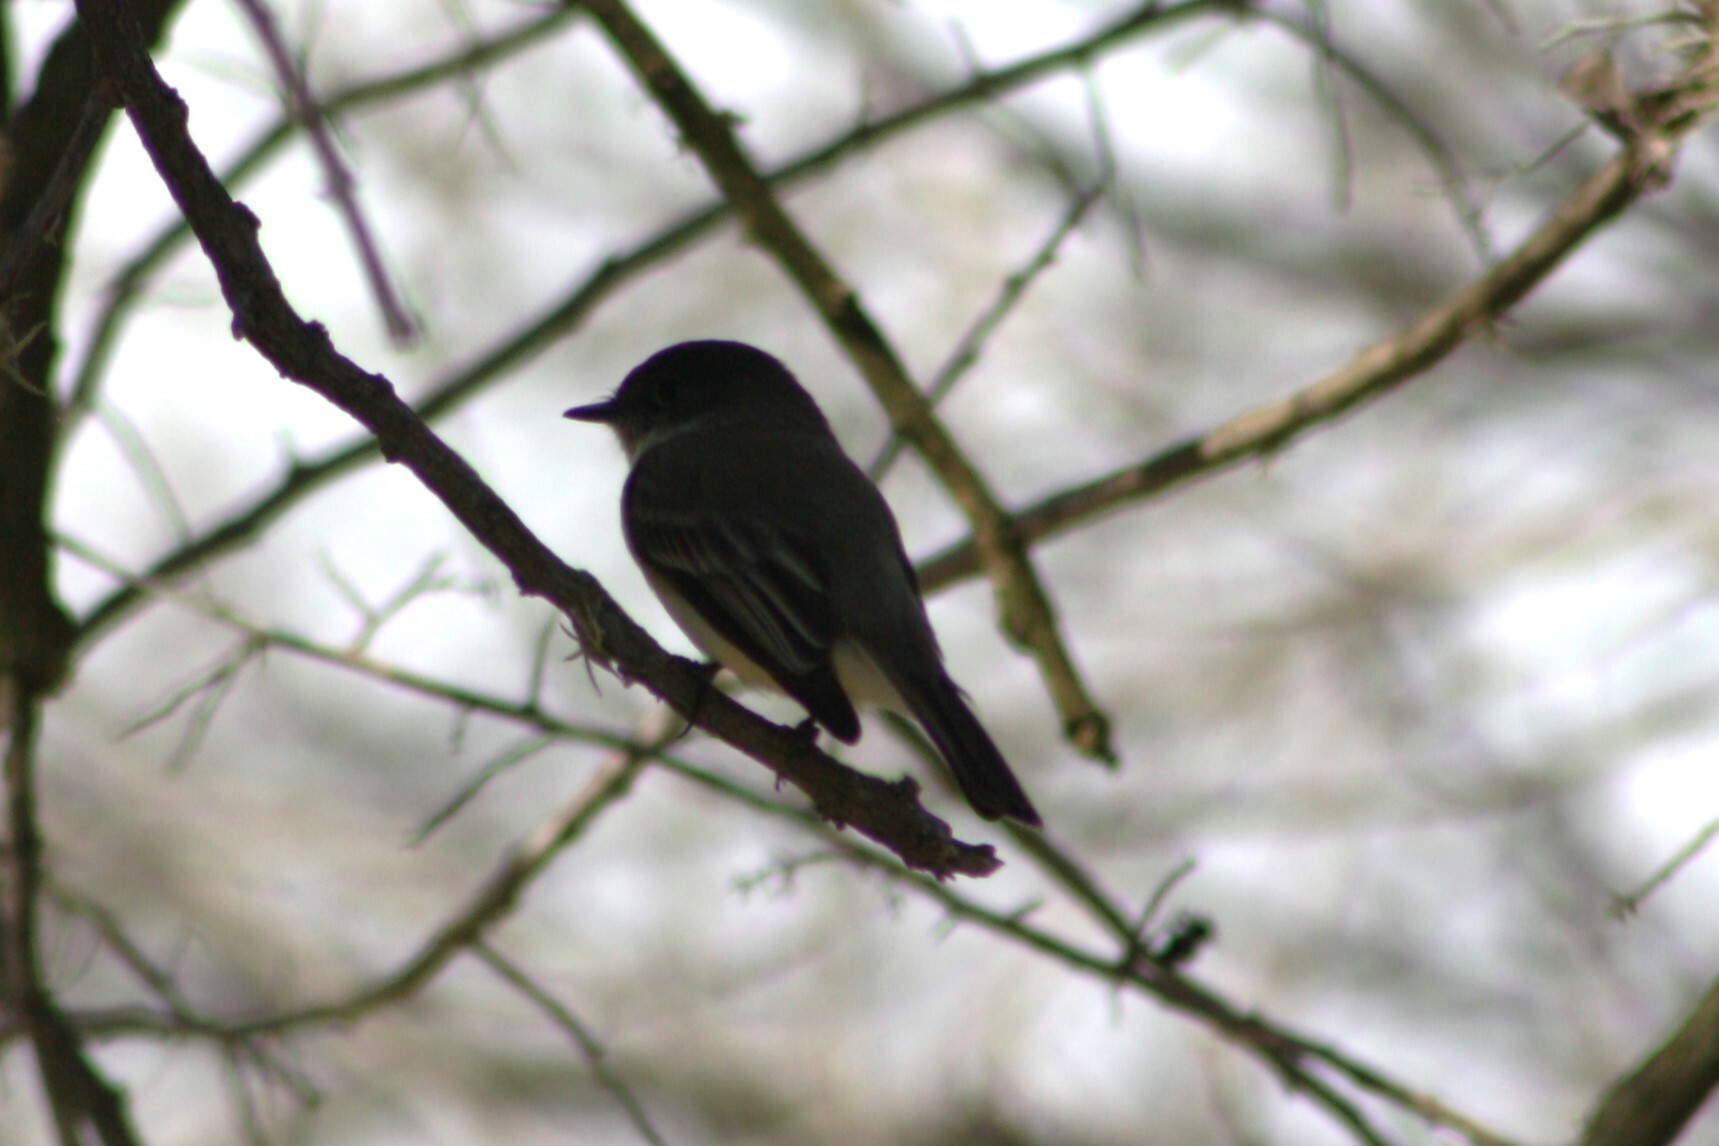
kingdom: Animalia
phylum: Chordata
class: Aves
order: Passeriformes
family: Tyrannidae
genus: Sayornis
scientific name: Sayornis phoebe
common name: Eastern phoebe
